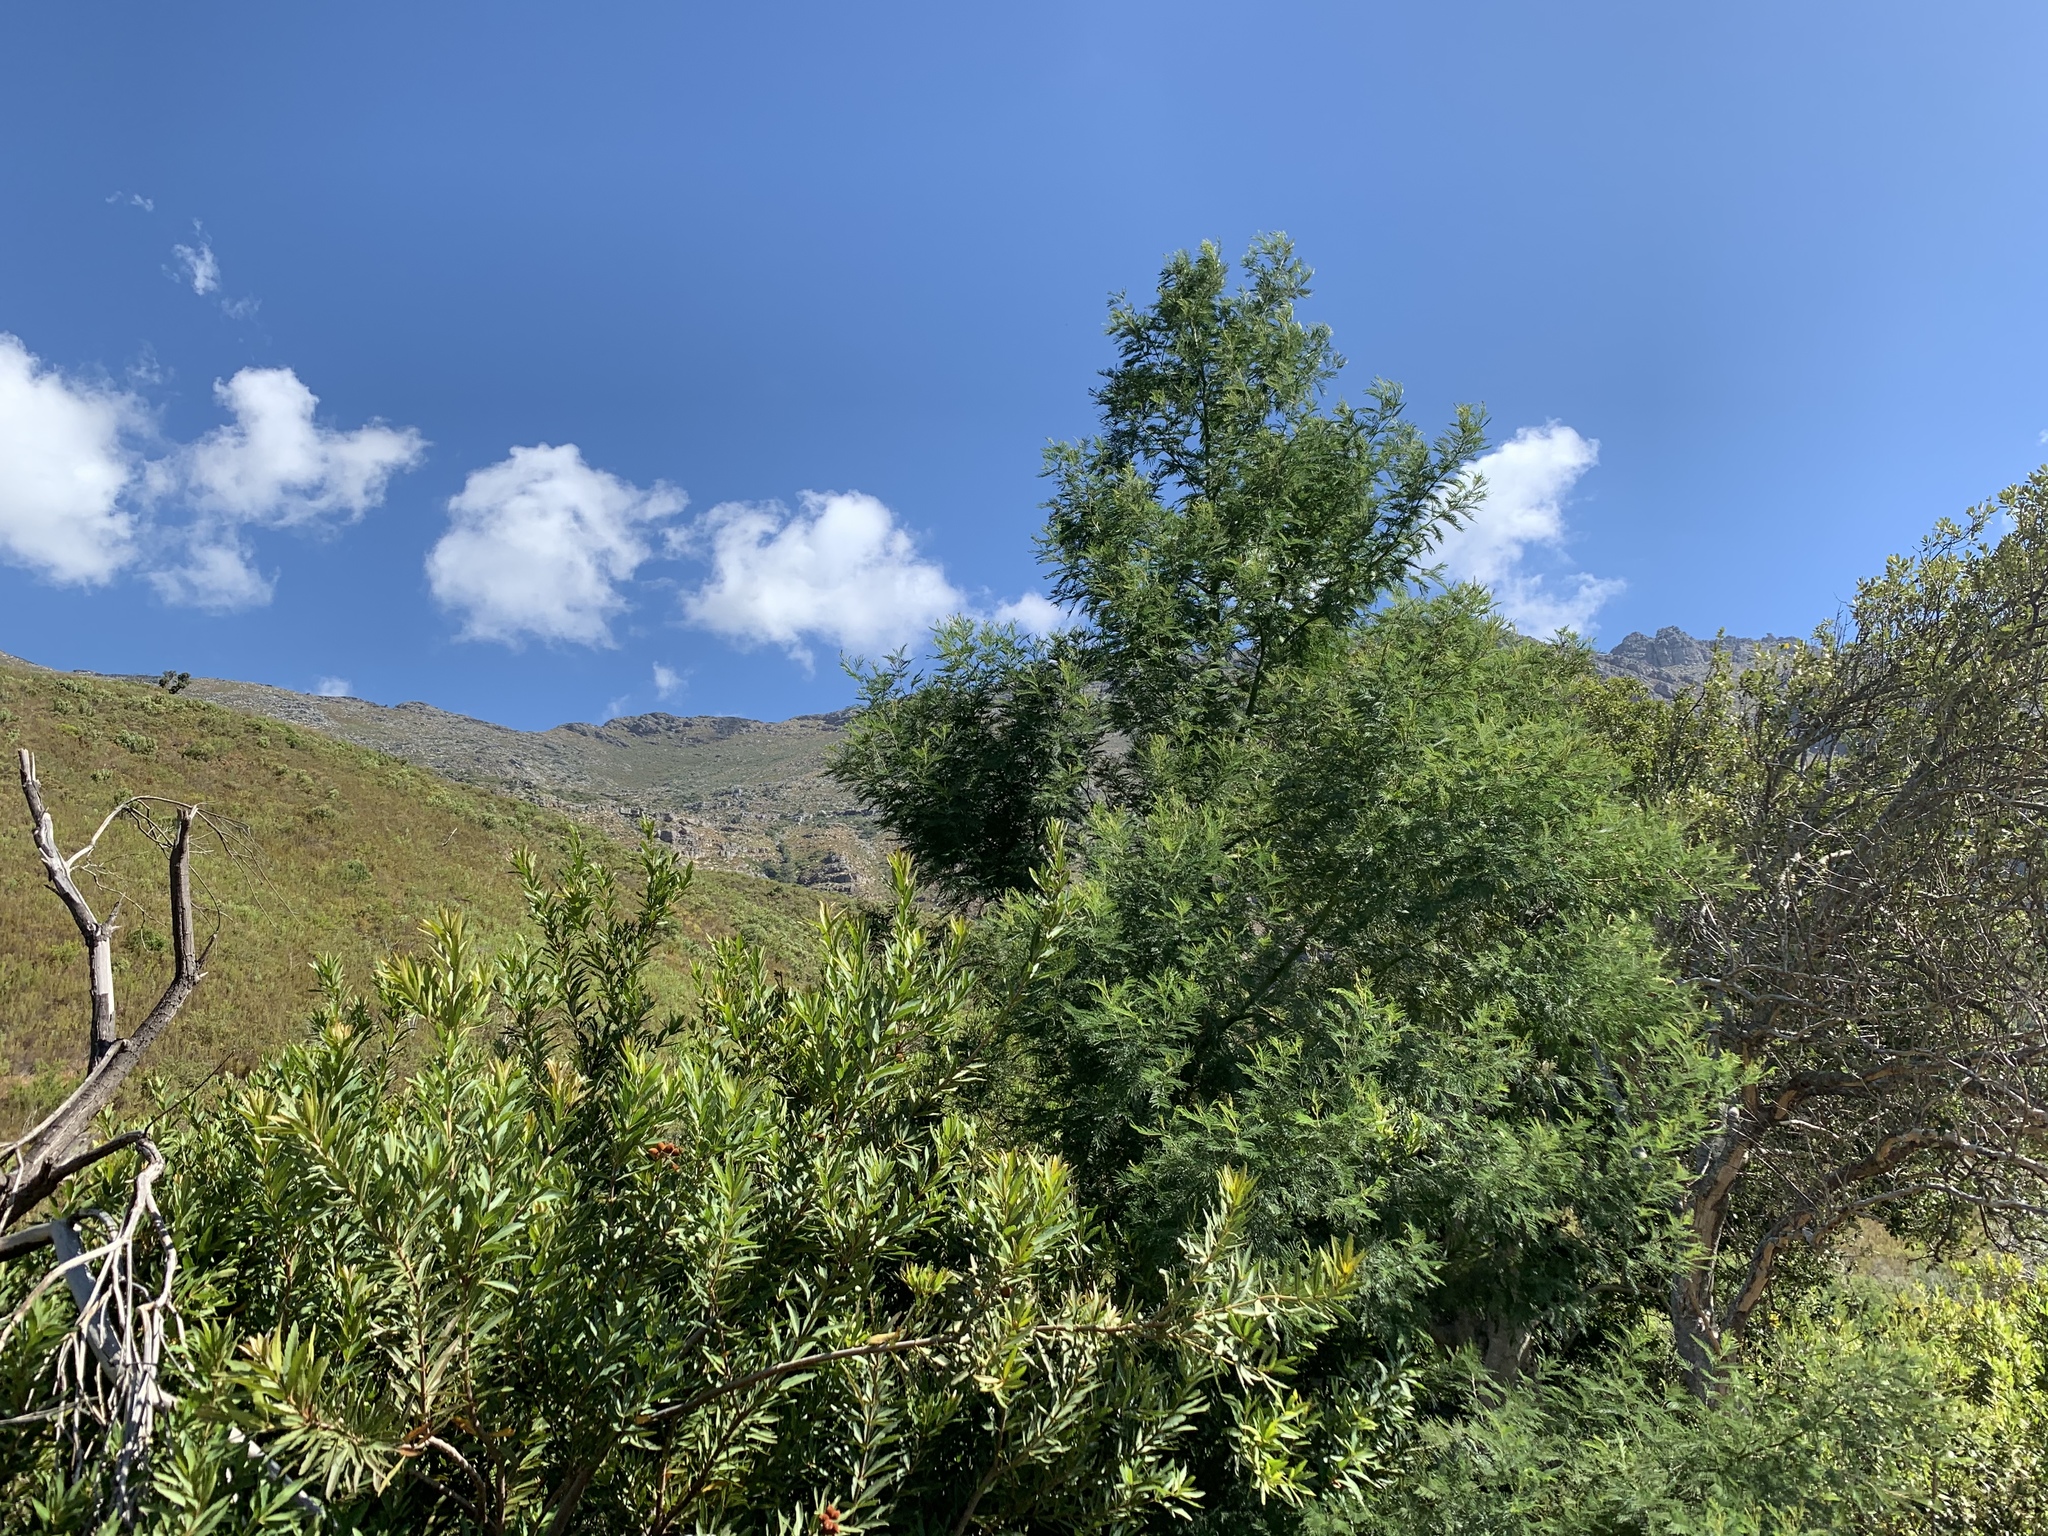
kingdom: Plantae
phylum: Tracheophyta
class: Magnoliopsida
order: Fabales
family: Fabaceae
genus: Acacia
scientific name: Acacia mearnsii
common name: Black wattle
